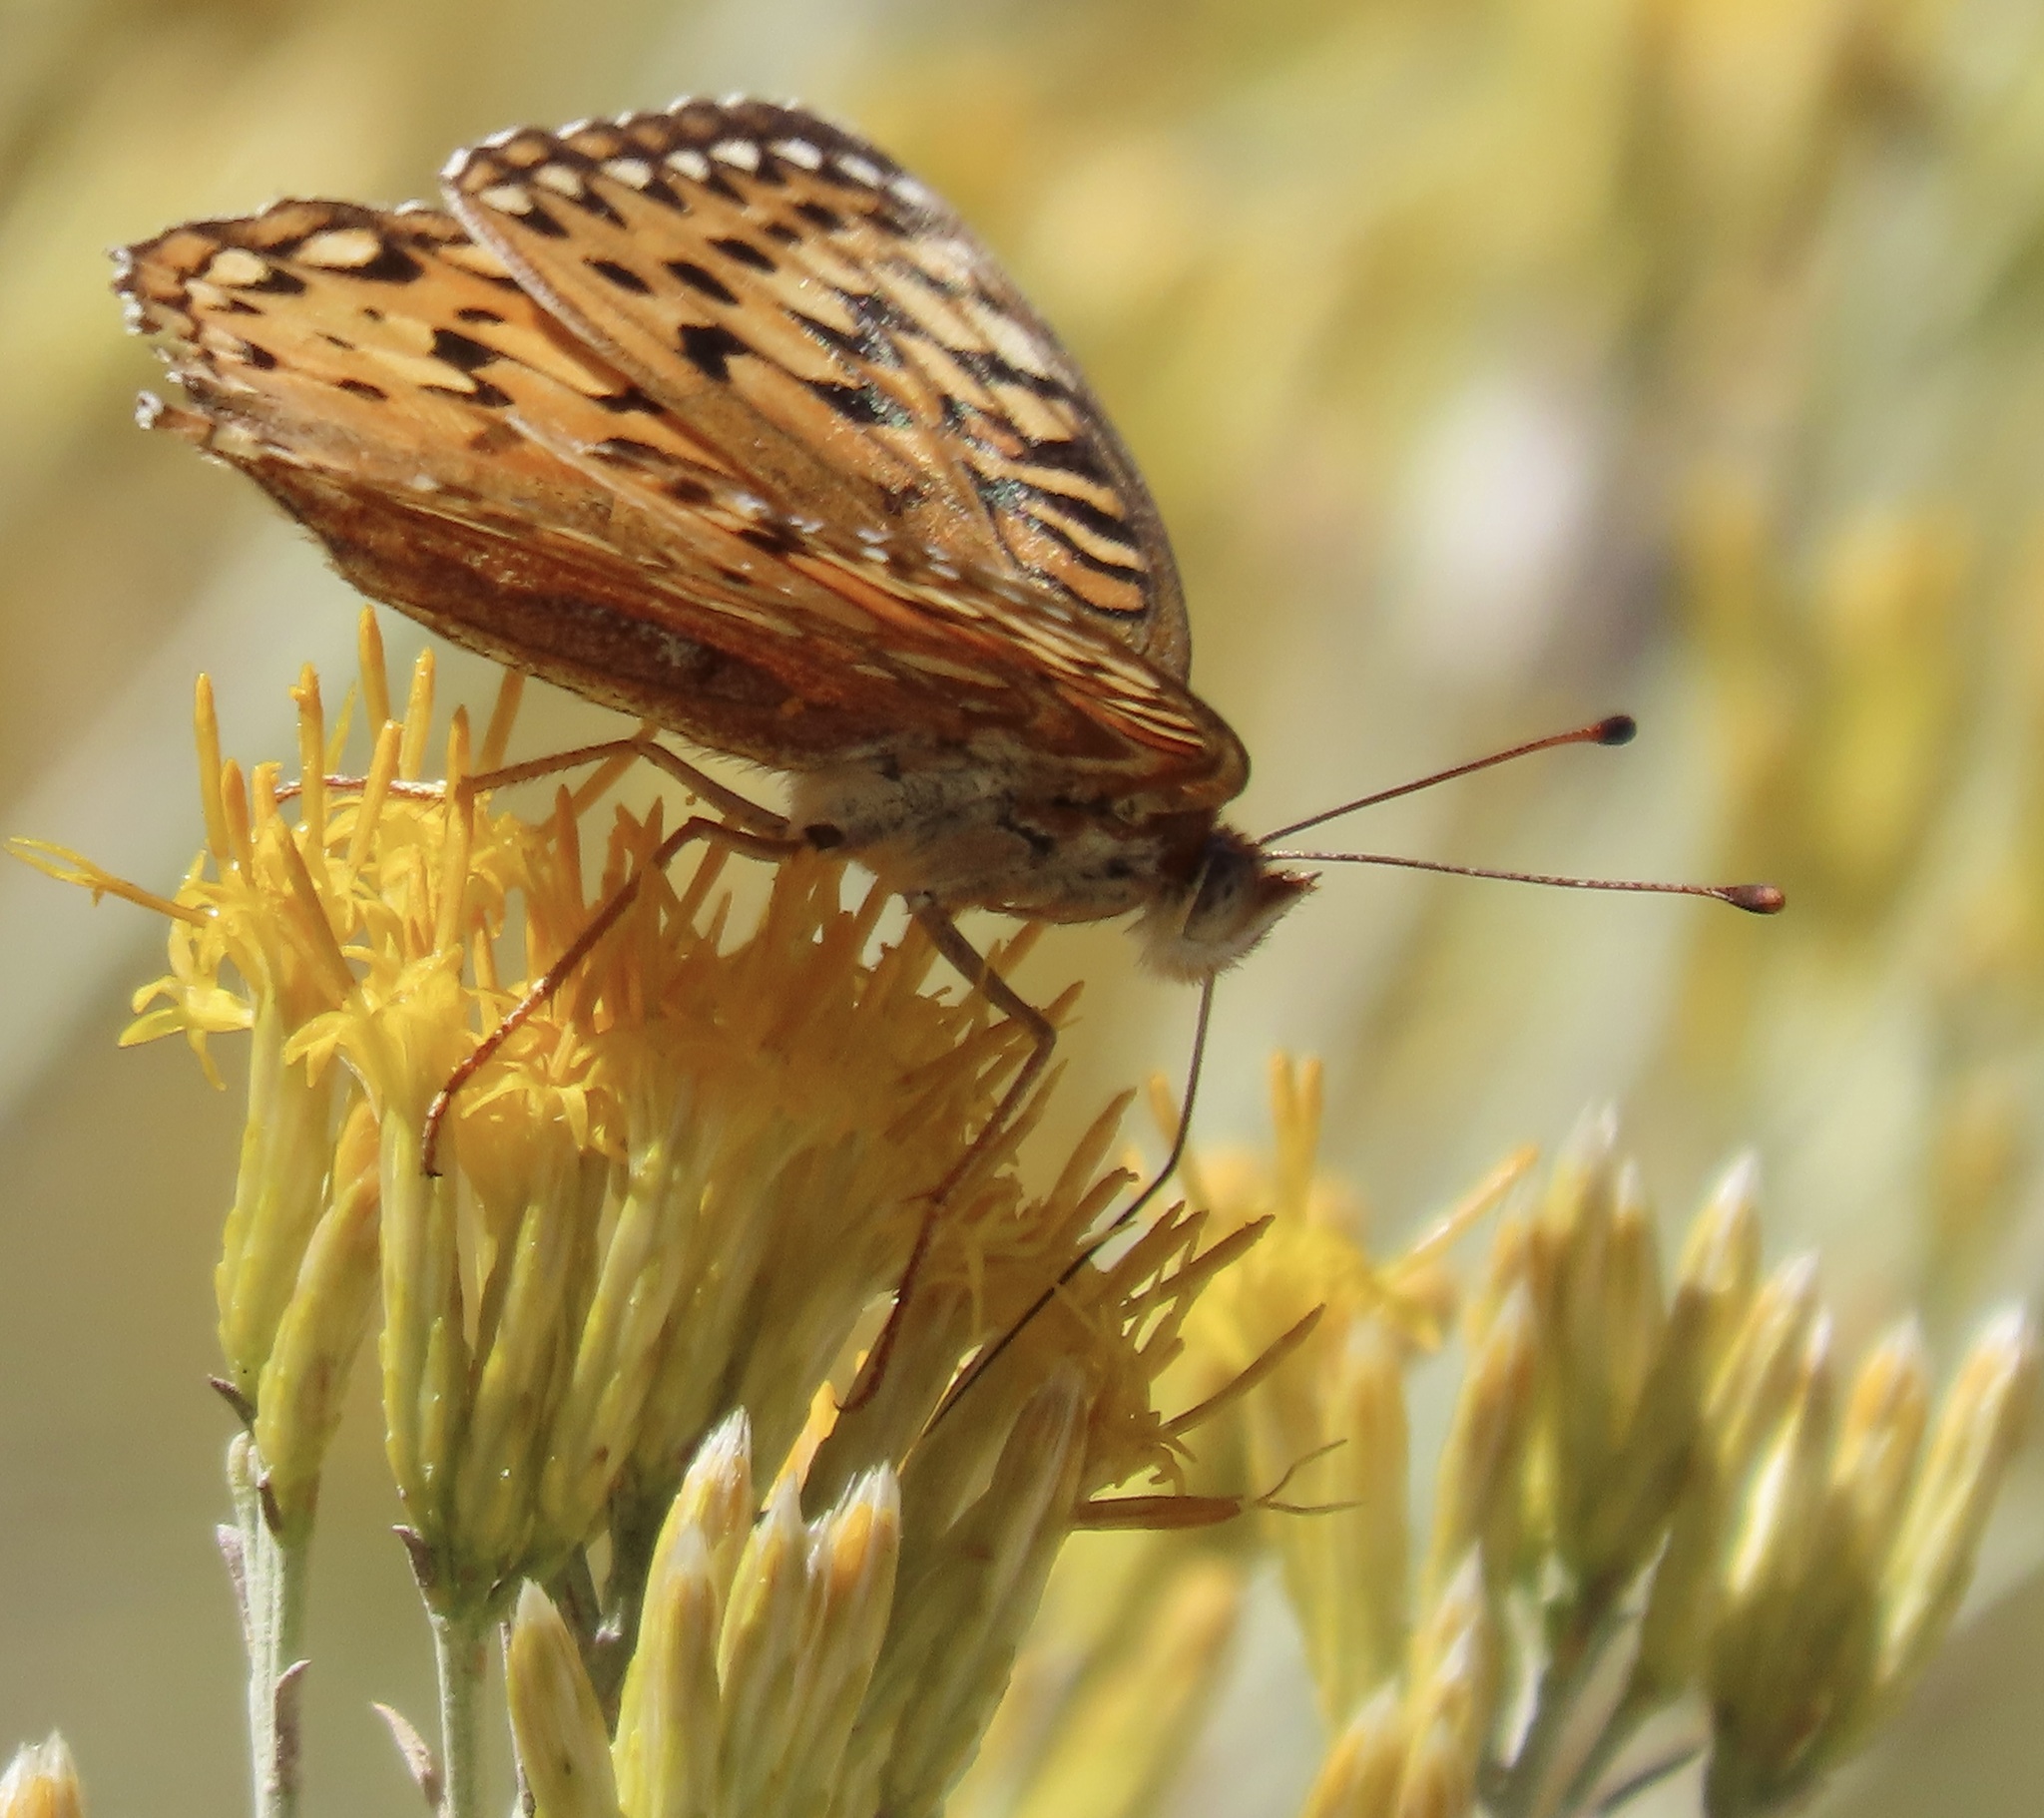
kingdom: Animalia
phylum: Arthropoda
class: Insecta
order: Lepidoptera
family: Nymphalidae
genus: Argynnis
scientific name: Argynnis coronis
